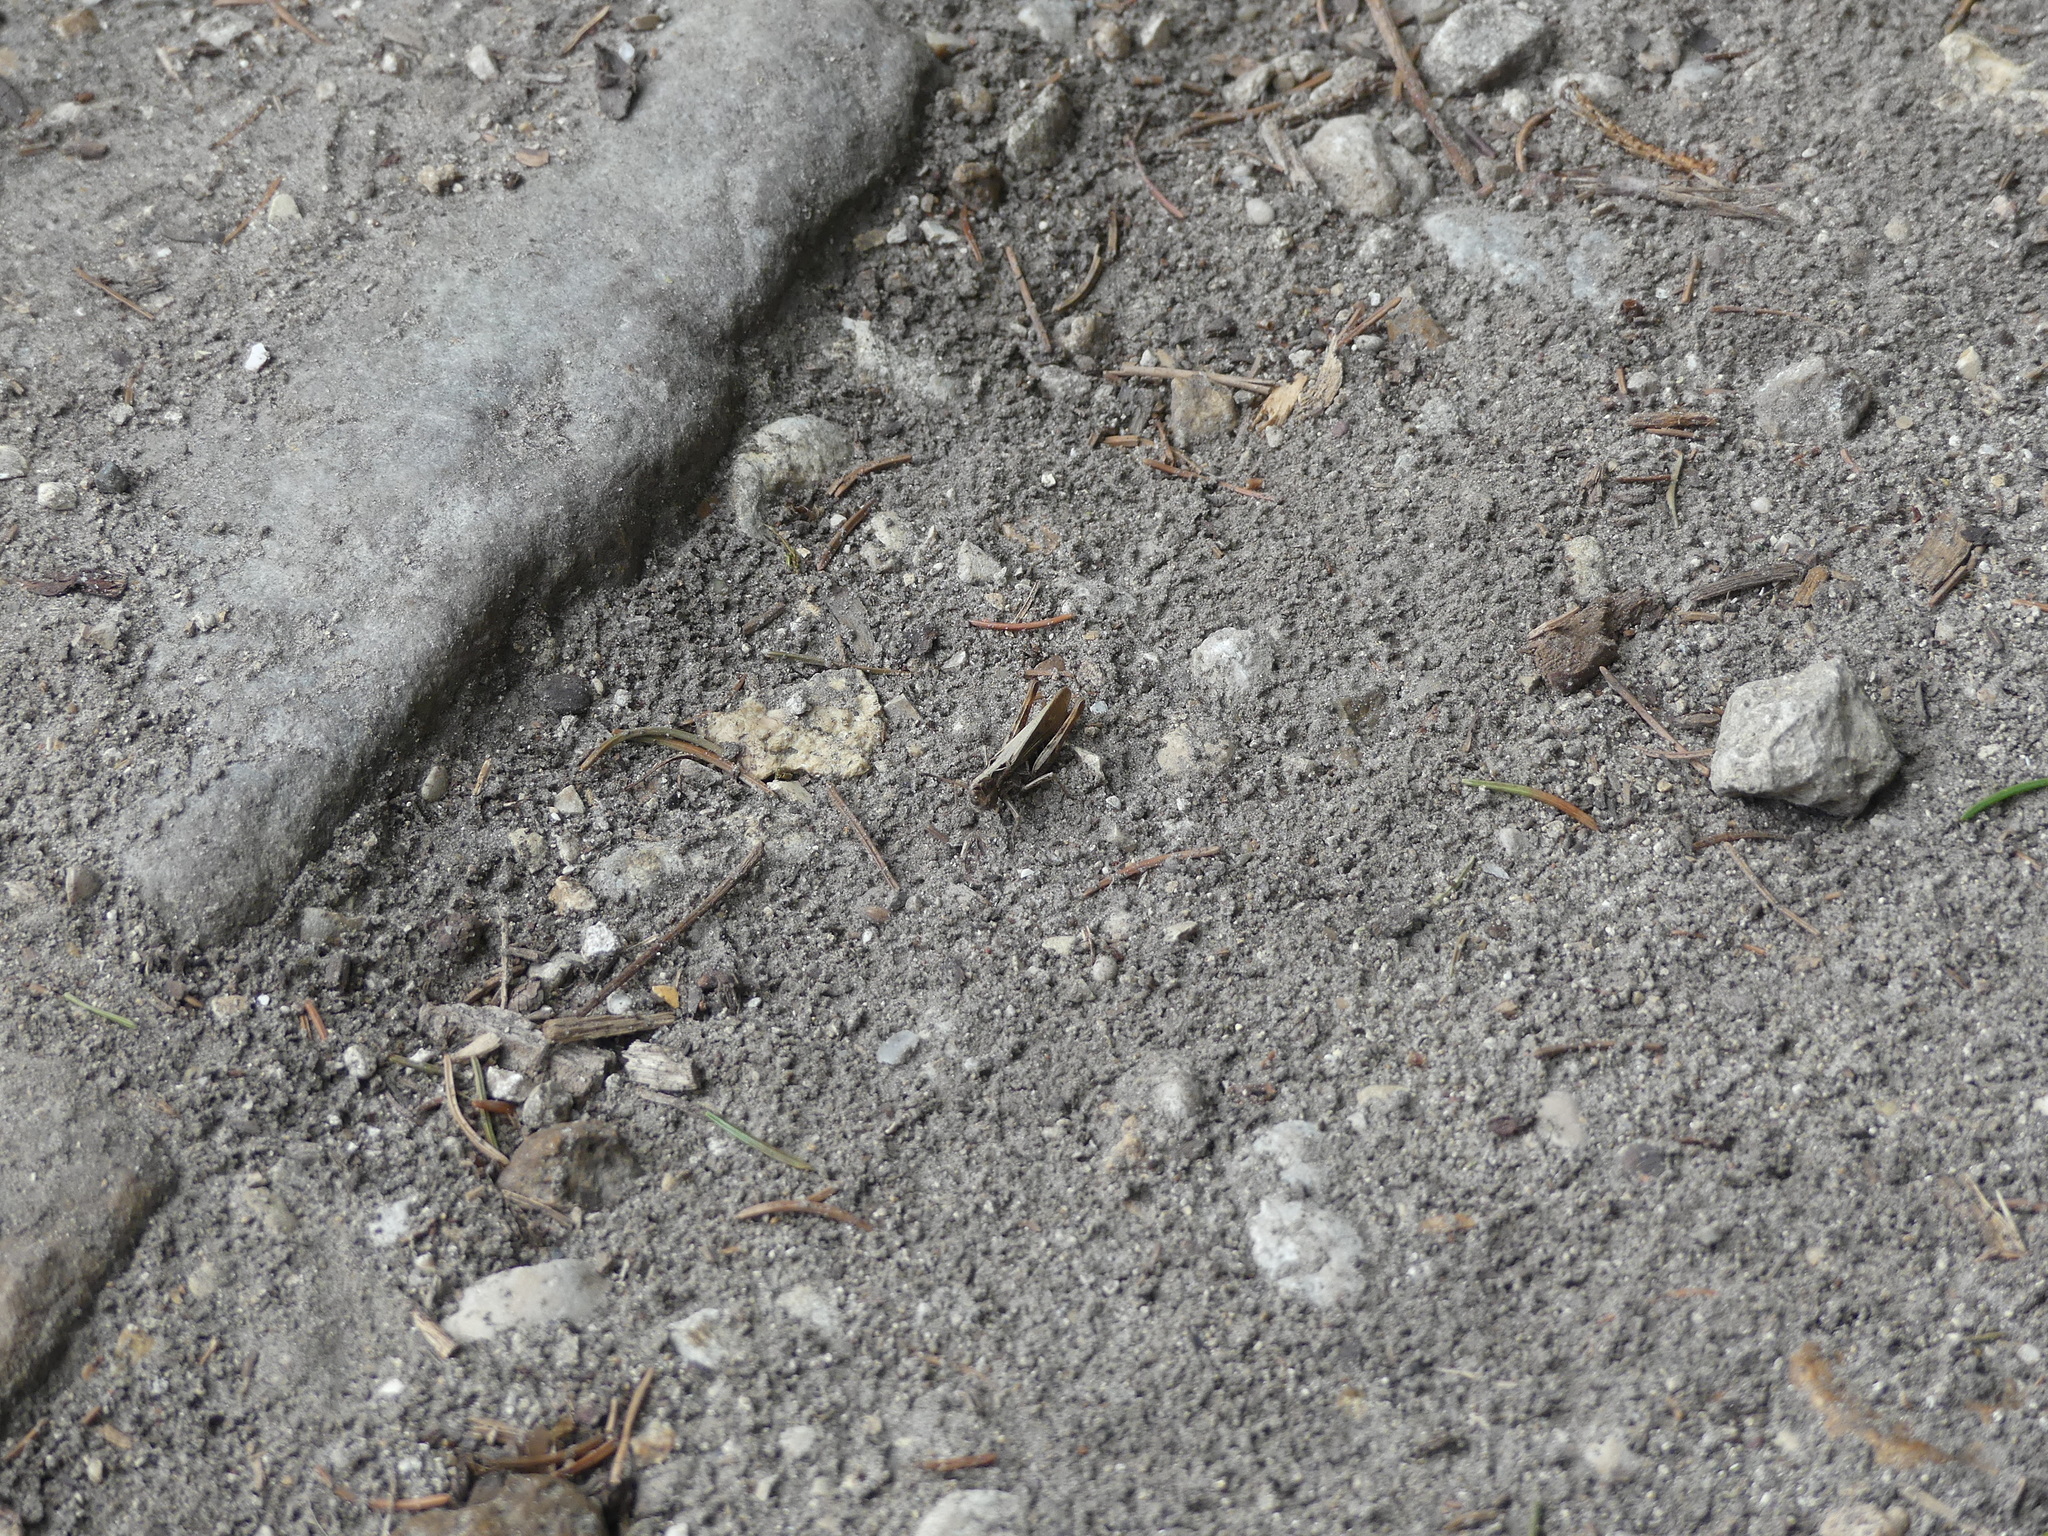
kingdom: Animalia
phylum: Arthropoda
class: Insecta
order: Orthoptera
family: Acrididae
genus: Gomphocerippus
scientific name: Gomphocerippus rufus
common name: Rufous grasshopper
